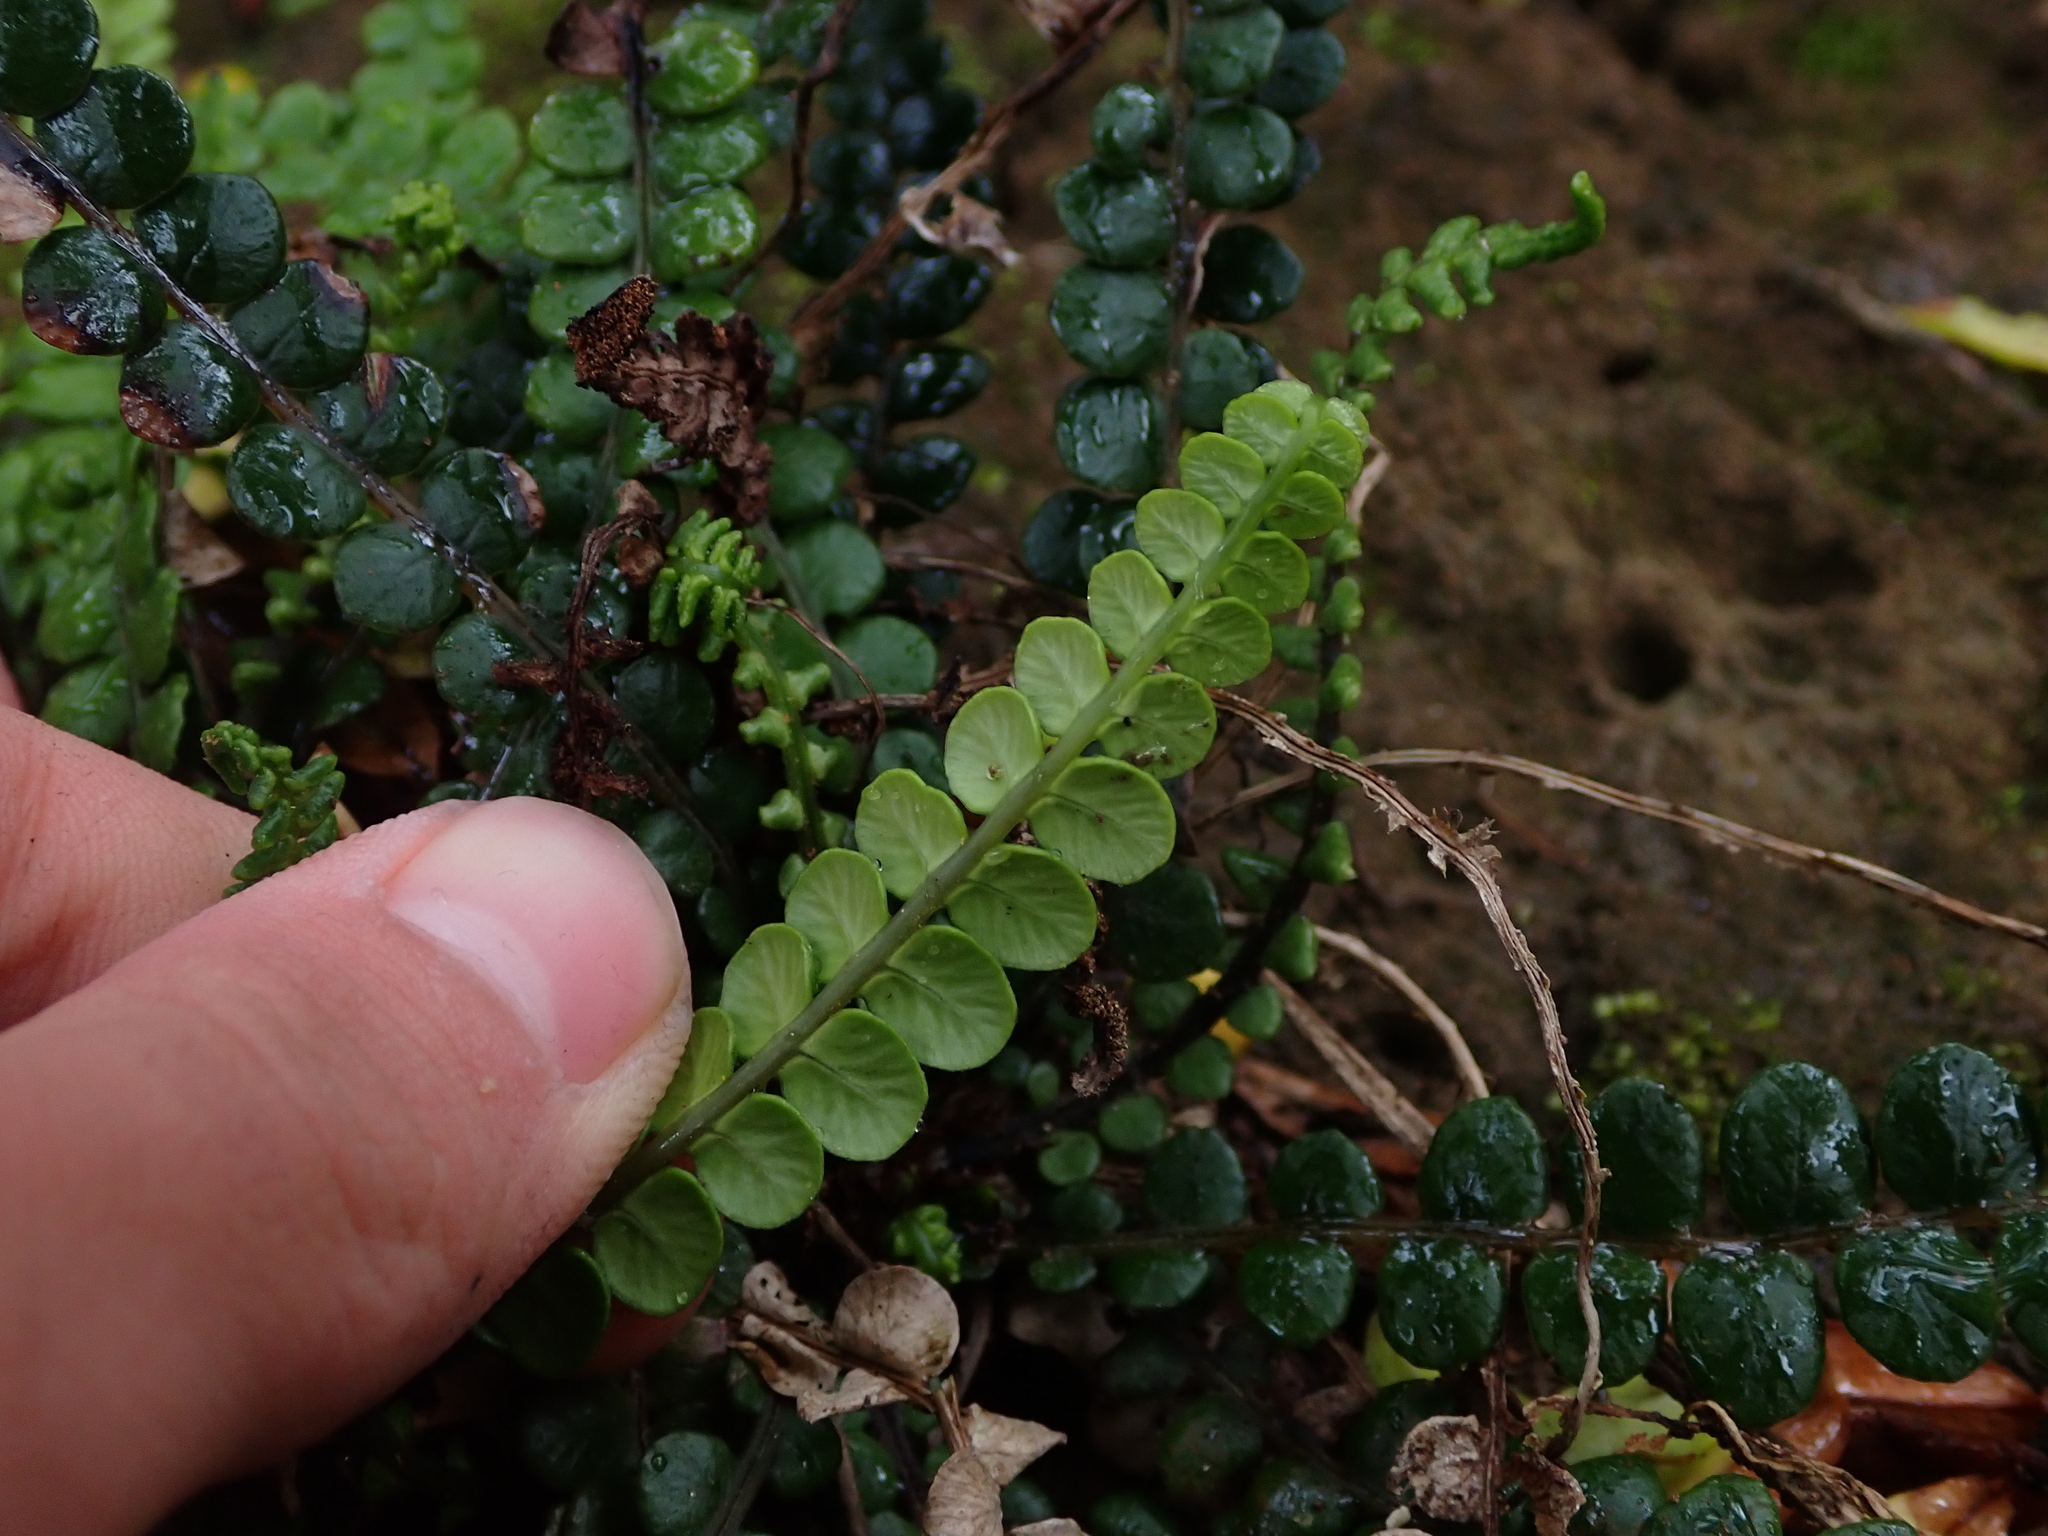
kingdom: Plantae
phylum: Tracheophyta
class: Polypodiopsida
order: Polypodiales
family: Blechnaceae
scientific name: Blechnaceae
